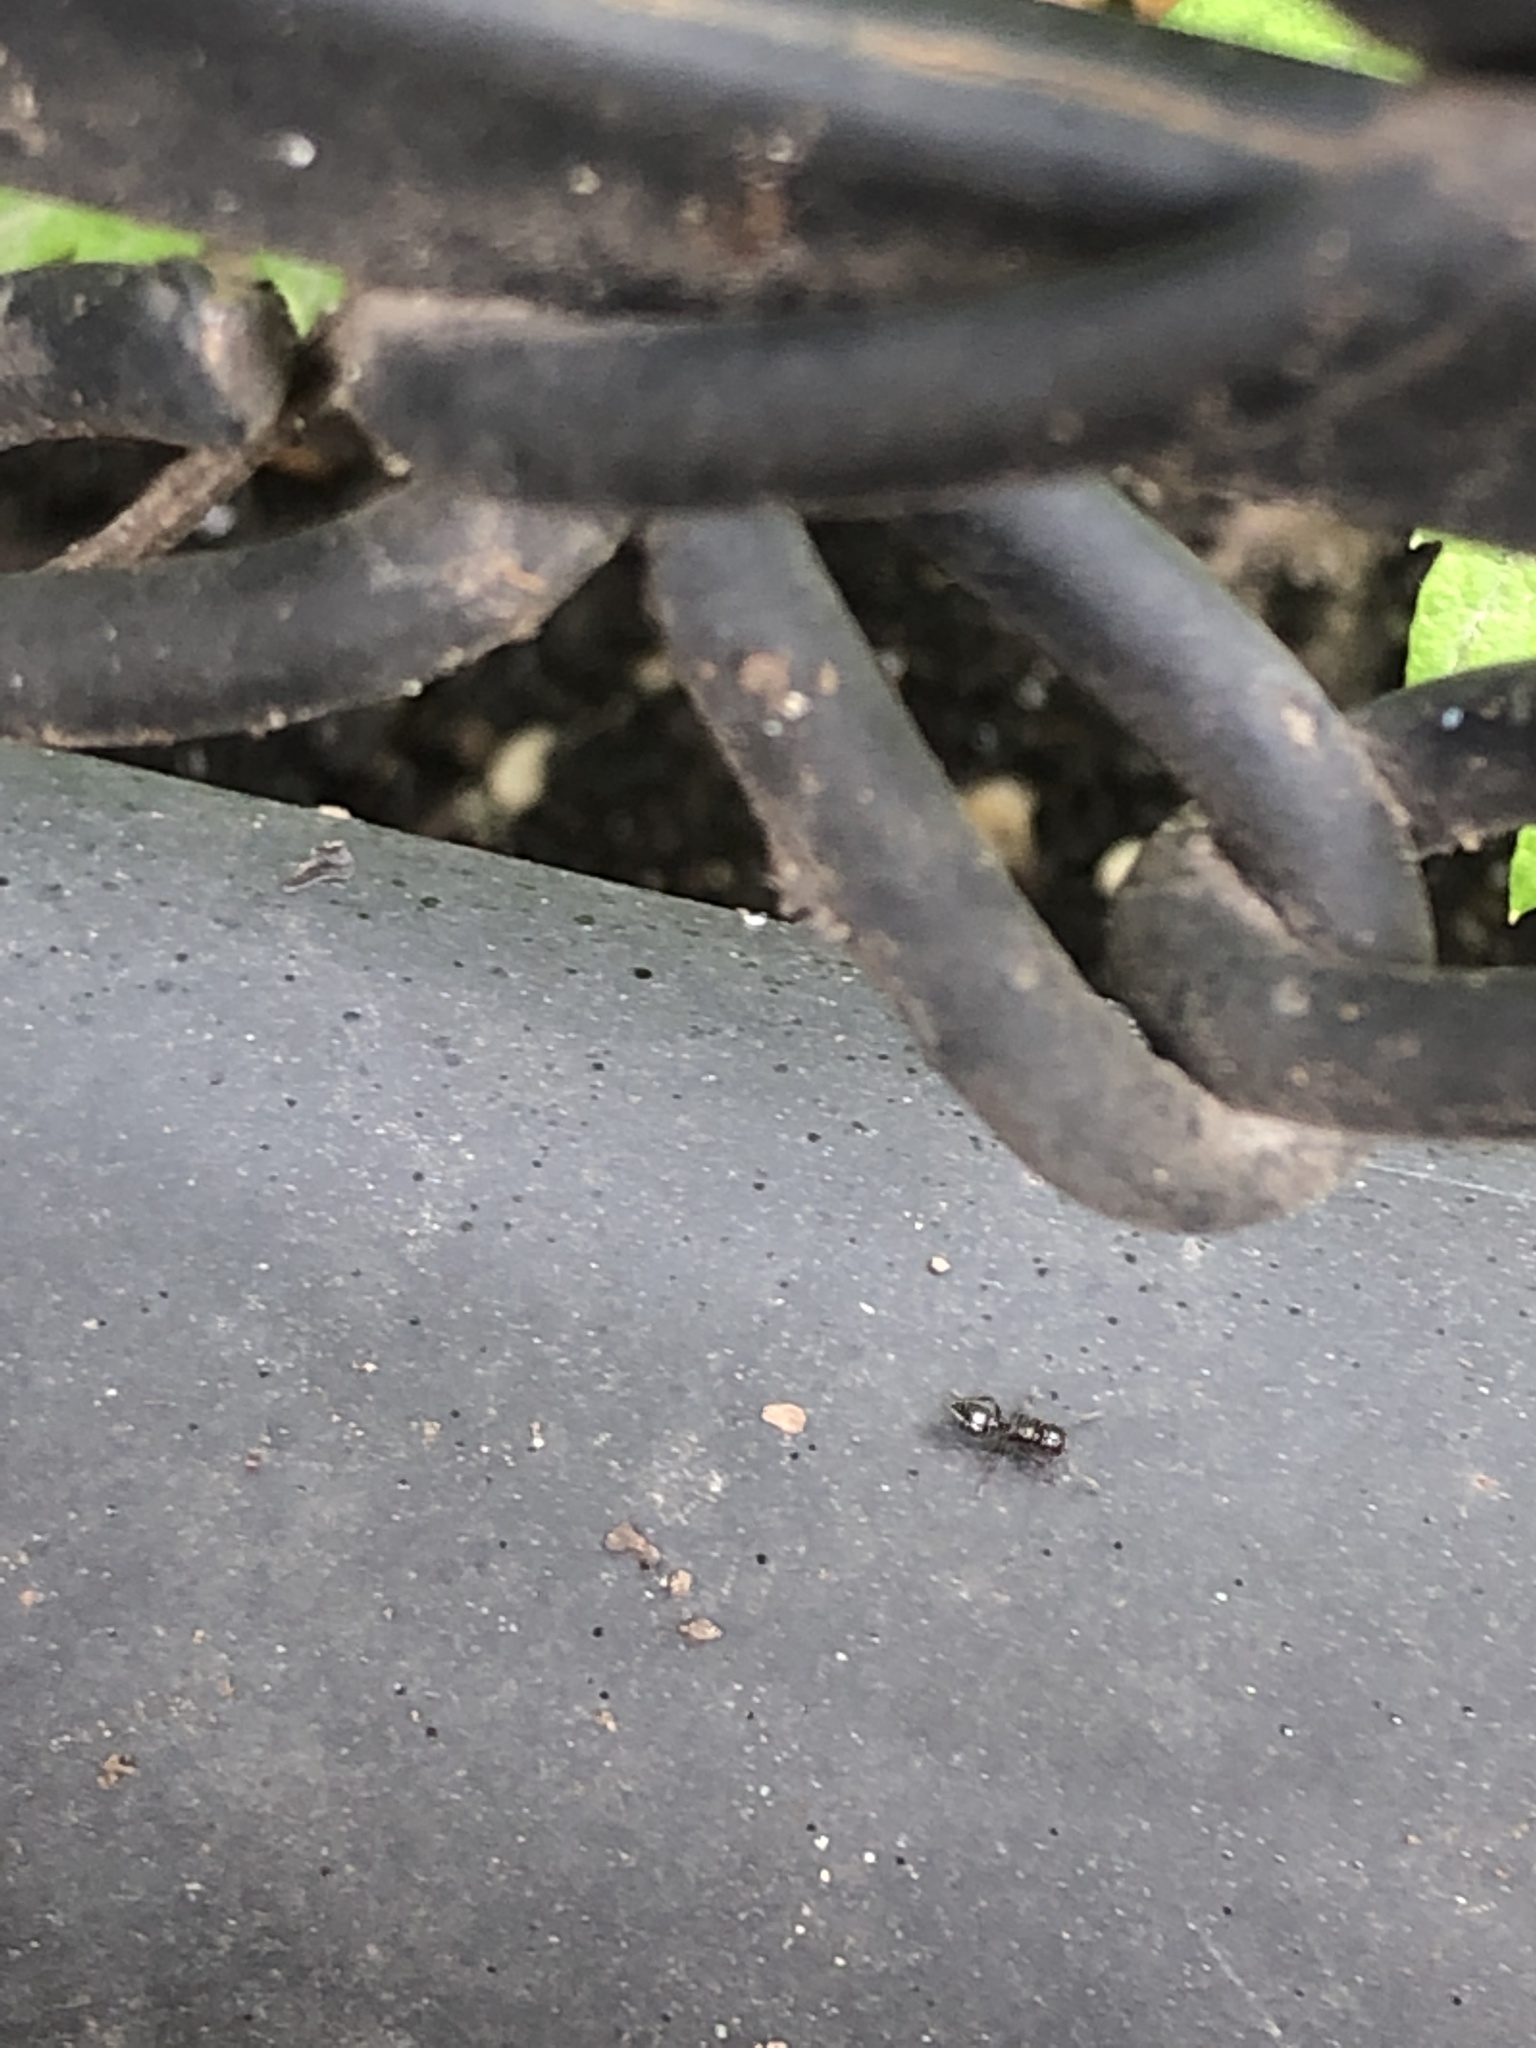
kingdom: Animalia
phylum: Arthropoda
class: Insecta
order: Hymenoptera
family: Formicidae
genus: Crematogaster
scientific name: Crematogaster
